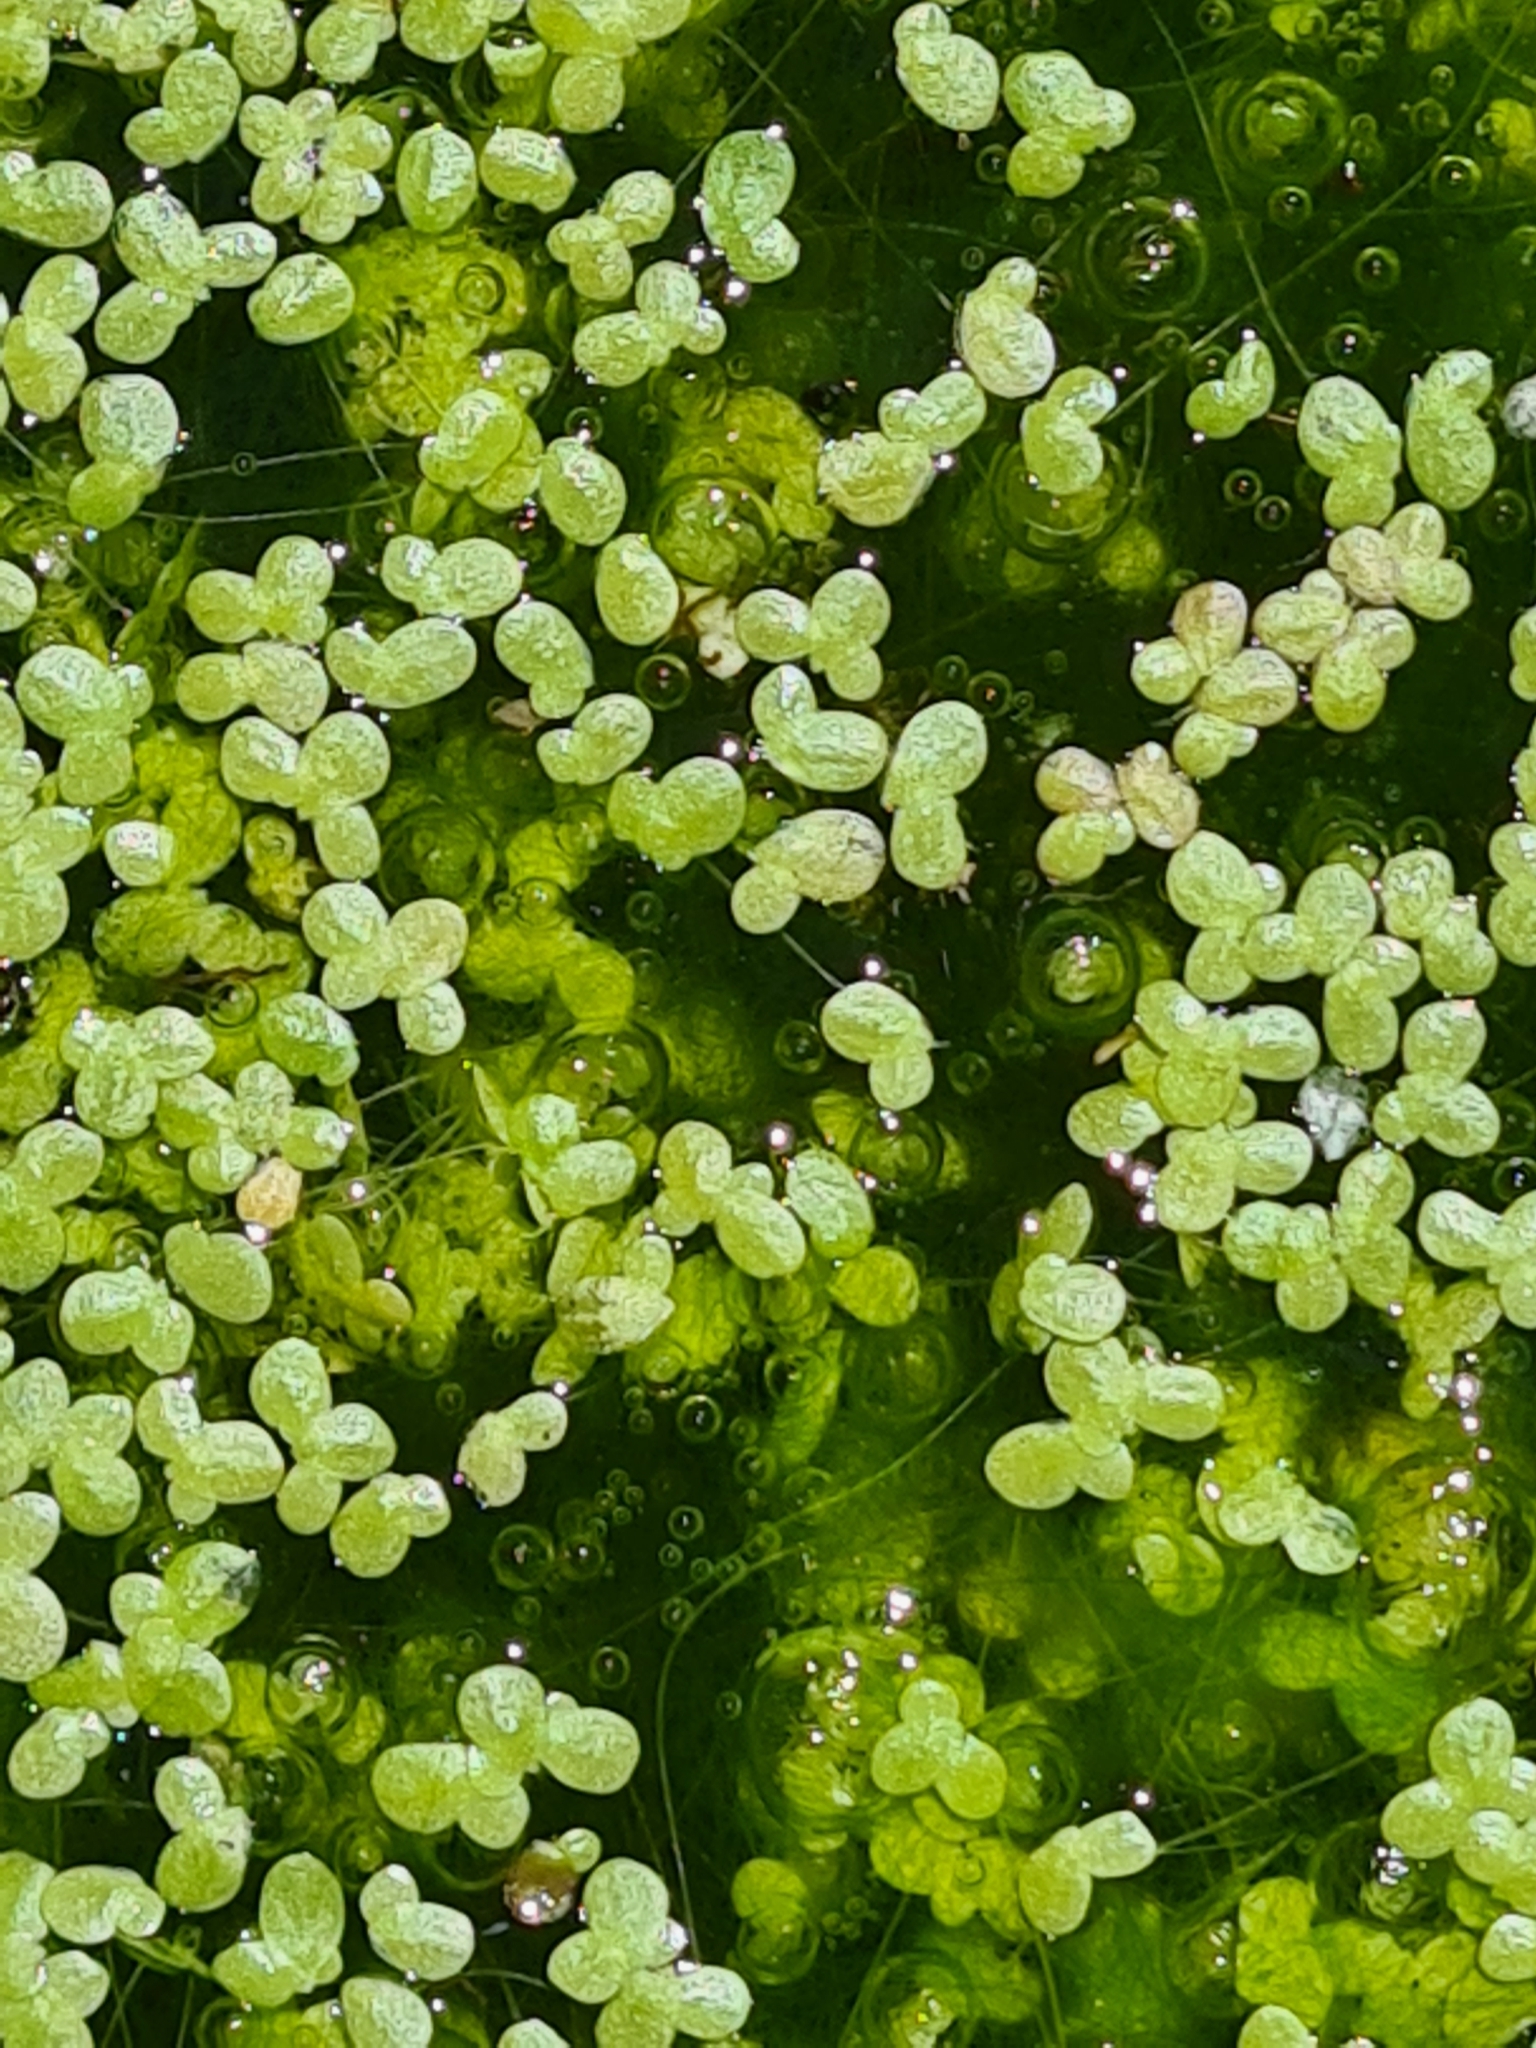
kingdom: Plantae
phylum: Tracheophyta
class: Liliopsida
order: Alismatales
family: Araceae
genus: Lemna
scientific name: Lemna minor
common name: Common duckweed
